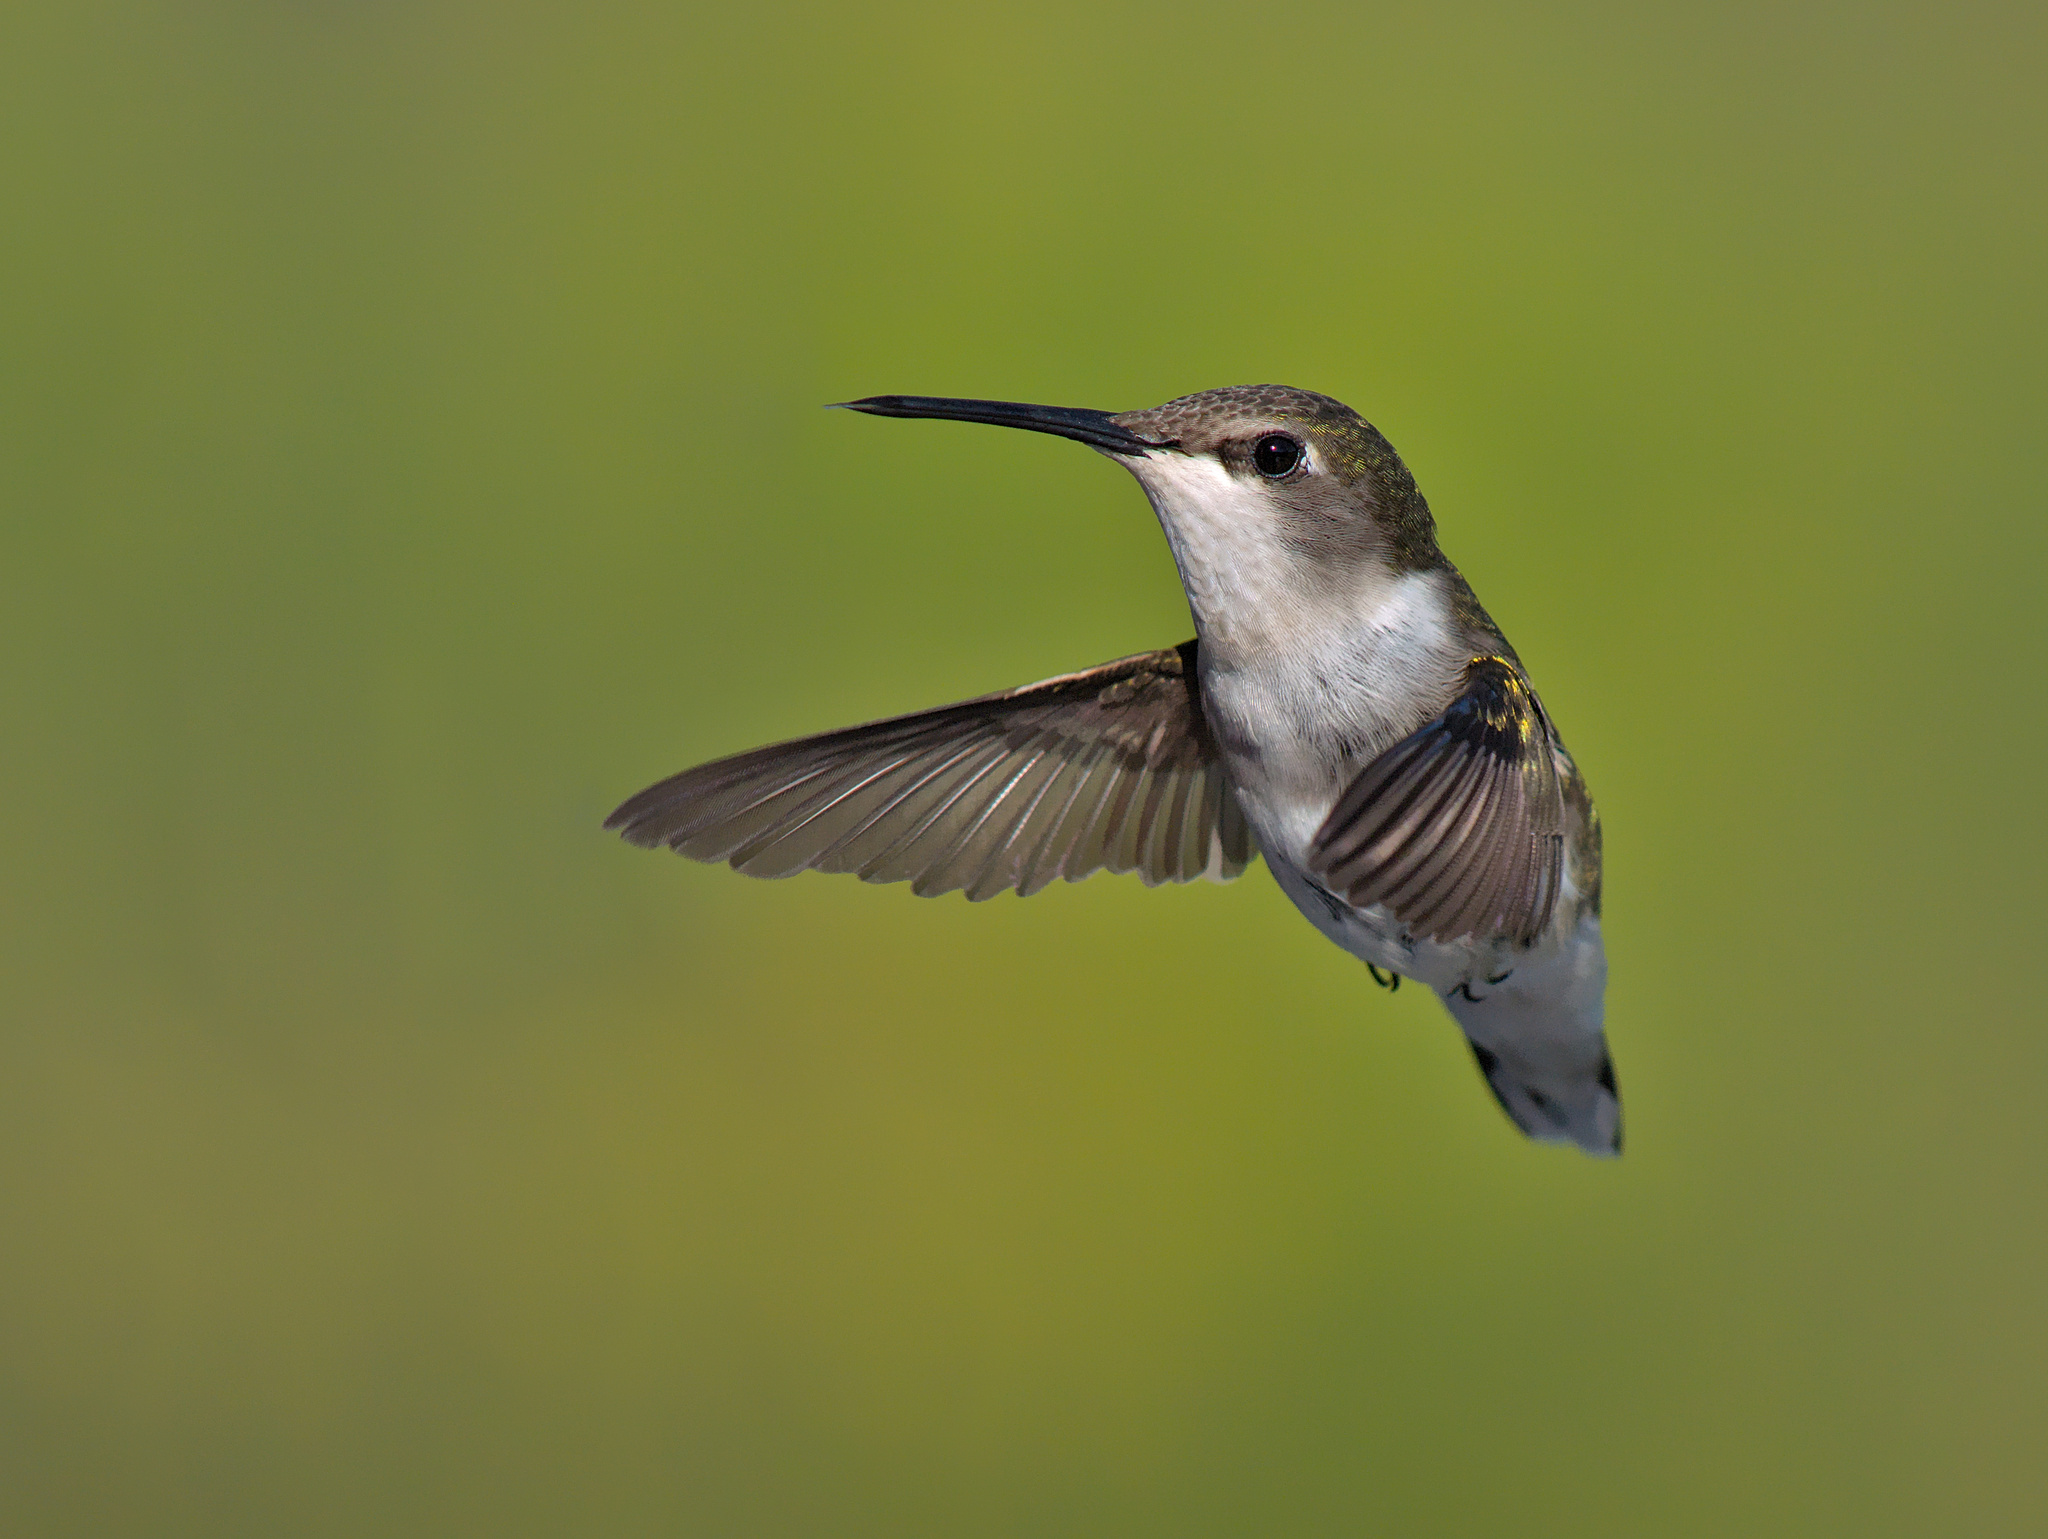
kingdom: Animalia
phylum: Chordata
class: Aves
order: Apodiformes
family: Trochilidae
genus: Archilochus
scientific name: Archilochus colubris
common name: Ruby-throated hummingbird
